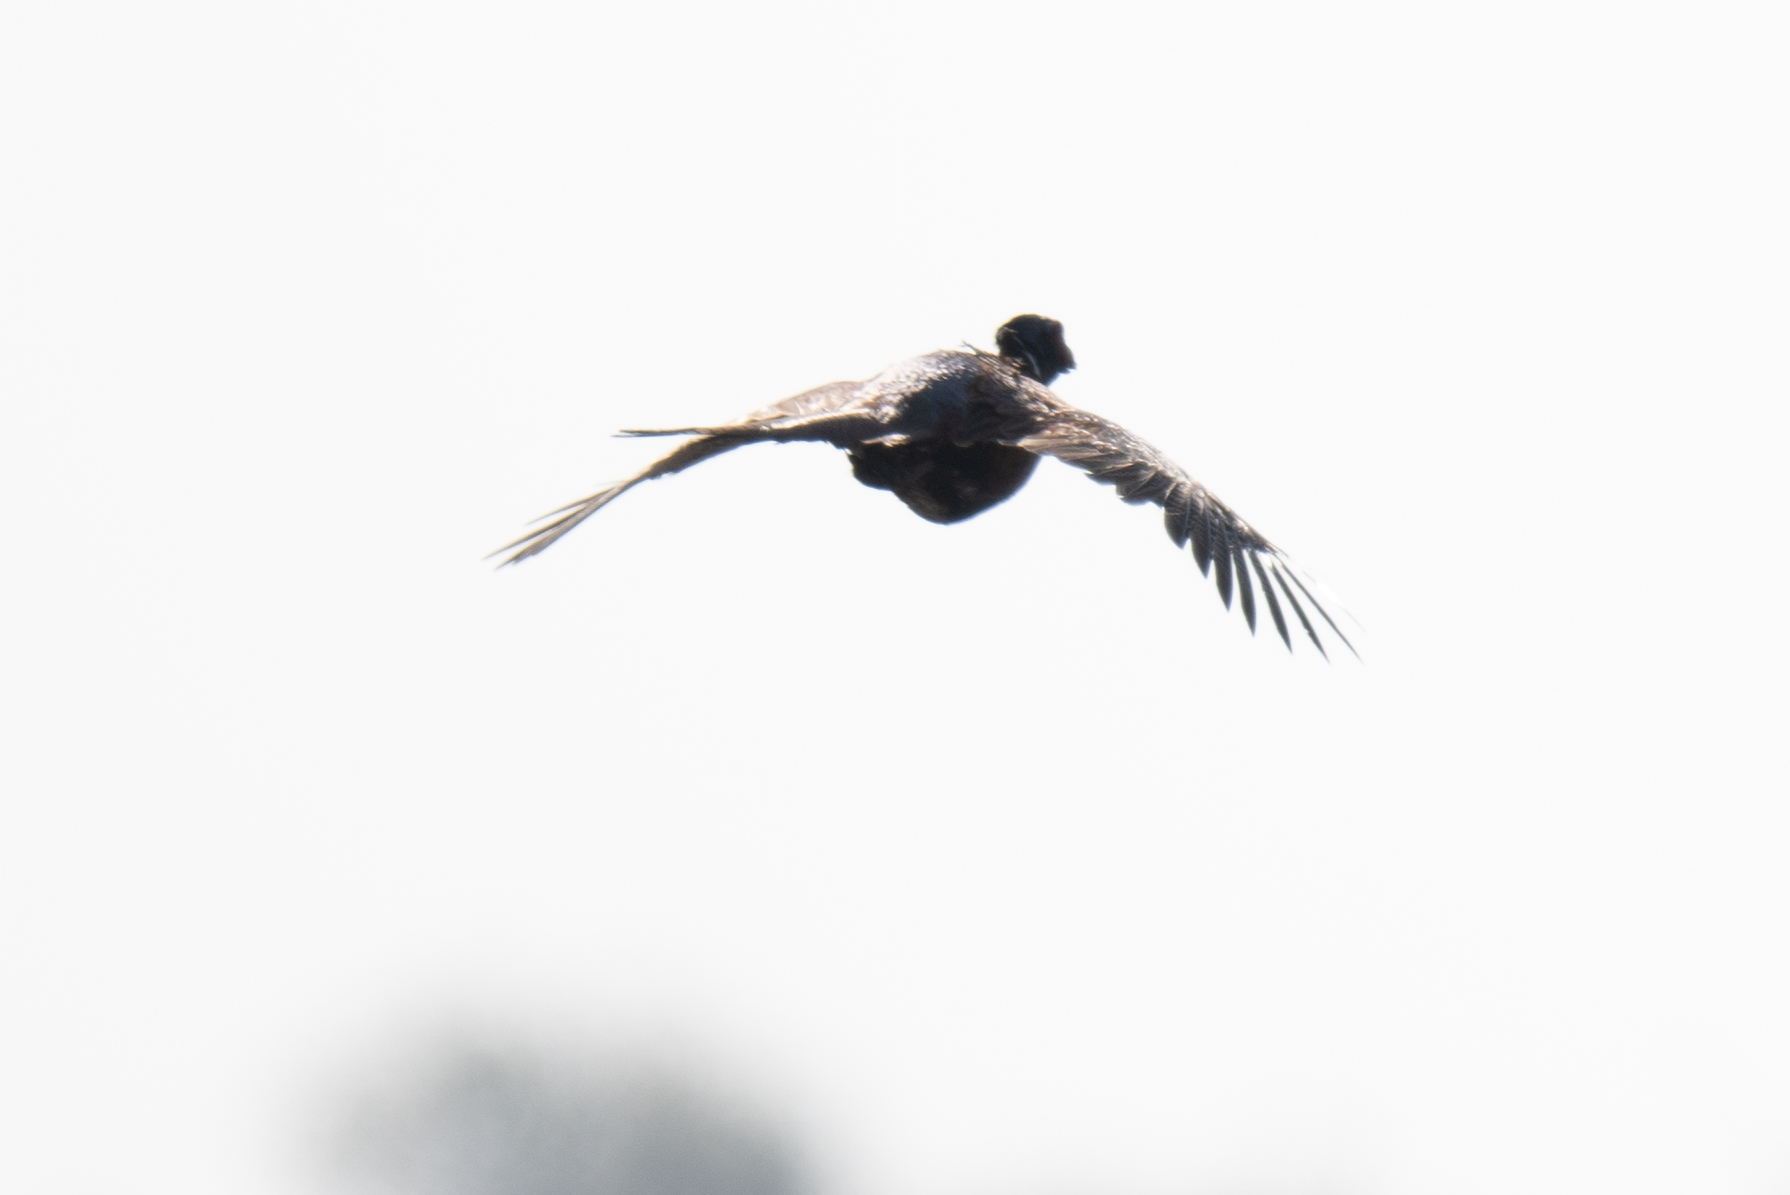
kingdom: Animalia
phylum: Chordata
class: Aves
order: Galliformes
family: Phasianidae
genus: Phasianus
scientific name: Phasianus colchicus
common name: Common pheasant
